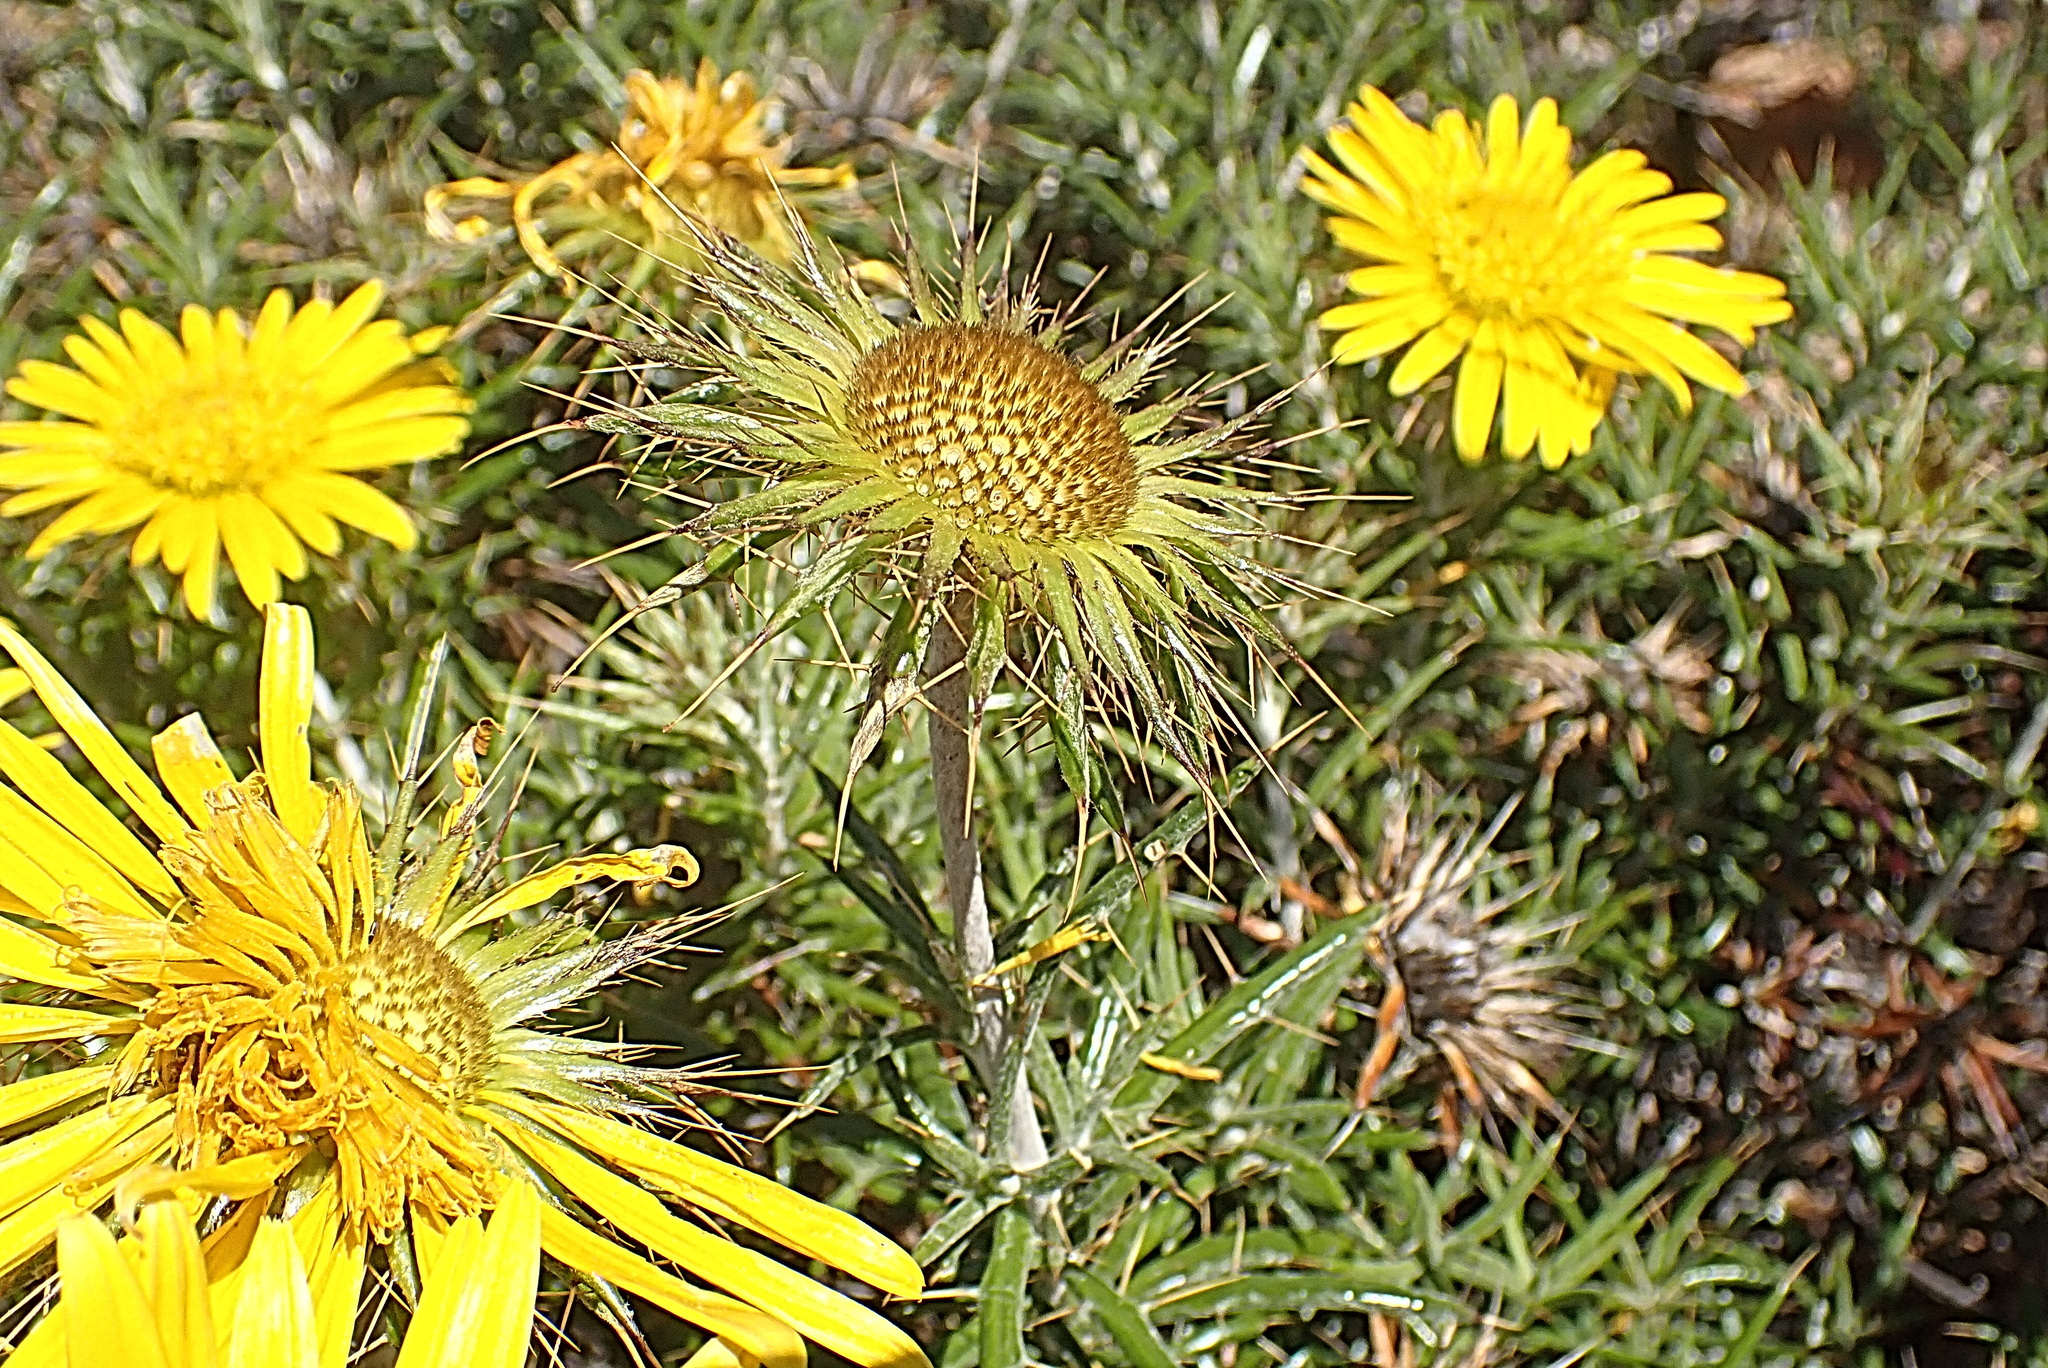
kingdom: Plantae
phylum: Tracheophyta
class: Magnoliopsida
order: Asterales
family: Asteraceae
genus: Berkheya
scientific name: Berkheya angustifolia
